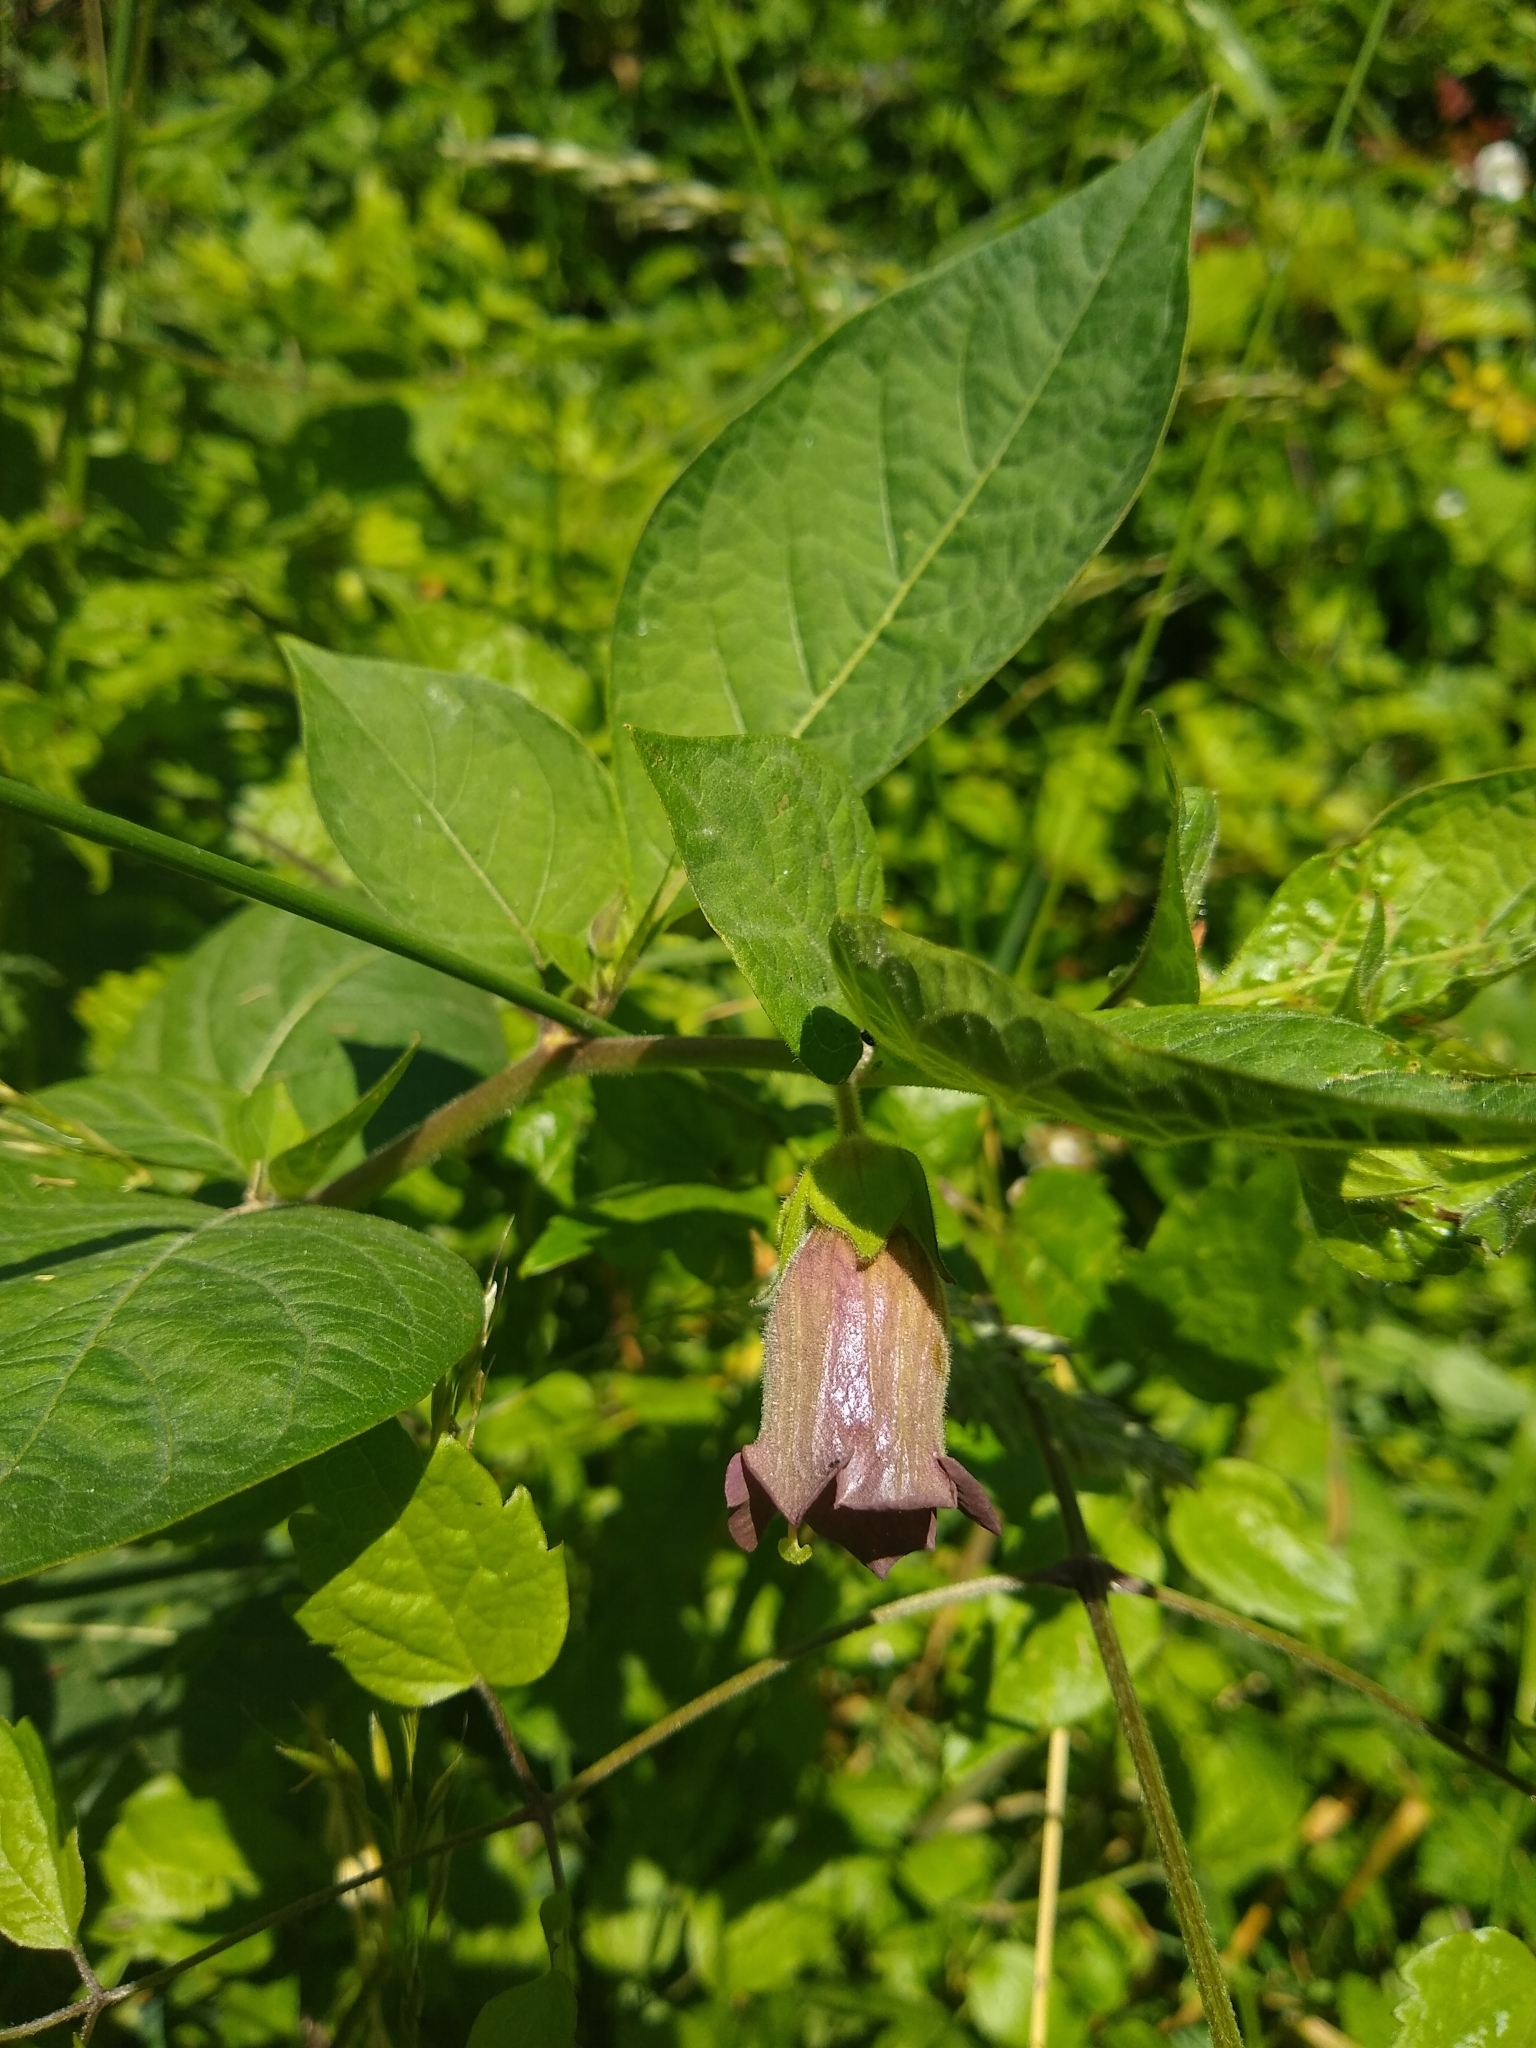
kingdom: Plantae
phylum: Tracheophyta
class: Magnoliopsida
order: Solanales
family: Solanaceae
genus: Atropa
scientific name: Atropa belladonna
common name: Deadly nightshade
